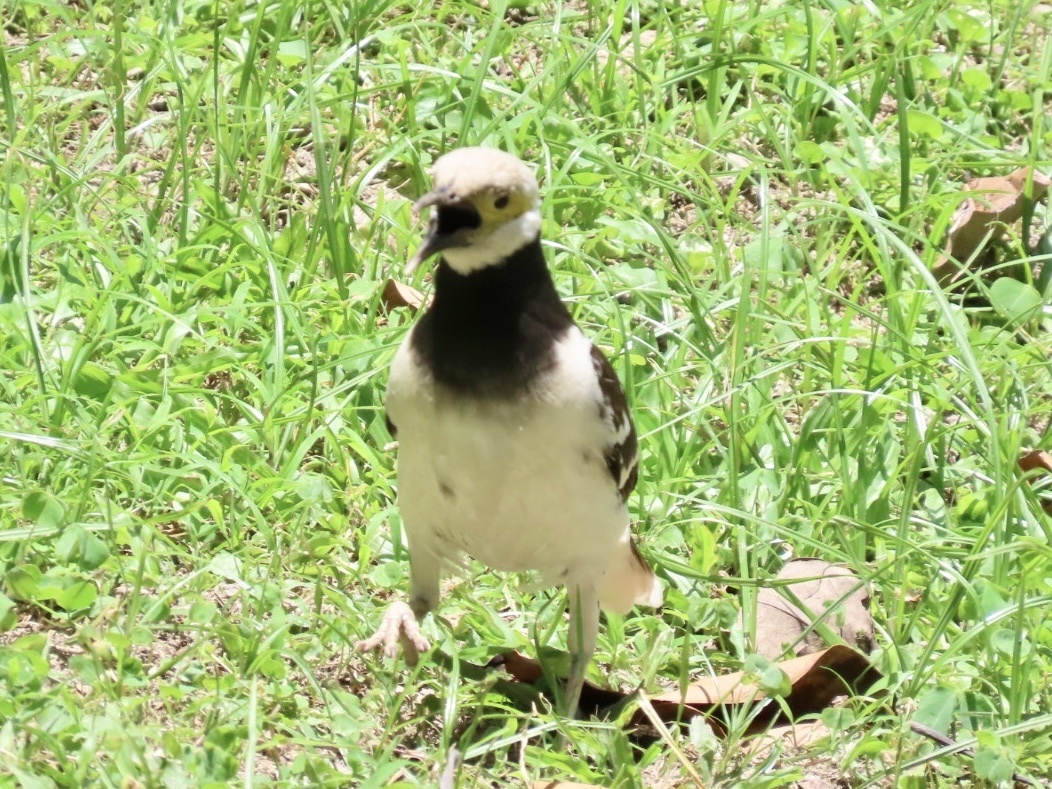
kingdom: Animalia
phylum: Chordata
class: Aves
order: Passeriformes
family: Sturnidae
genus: Gracupica
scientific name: Gracupica nigricollis
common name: Black-collared starling
